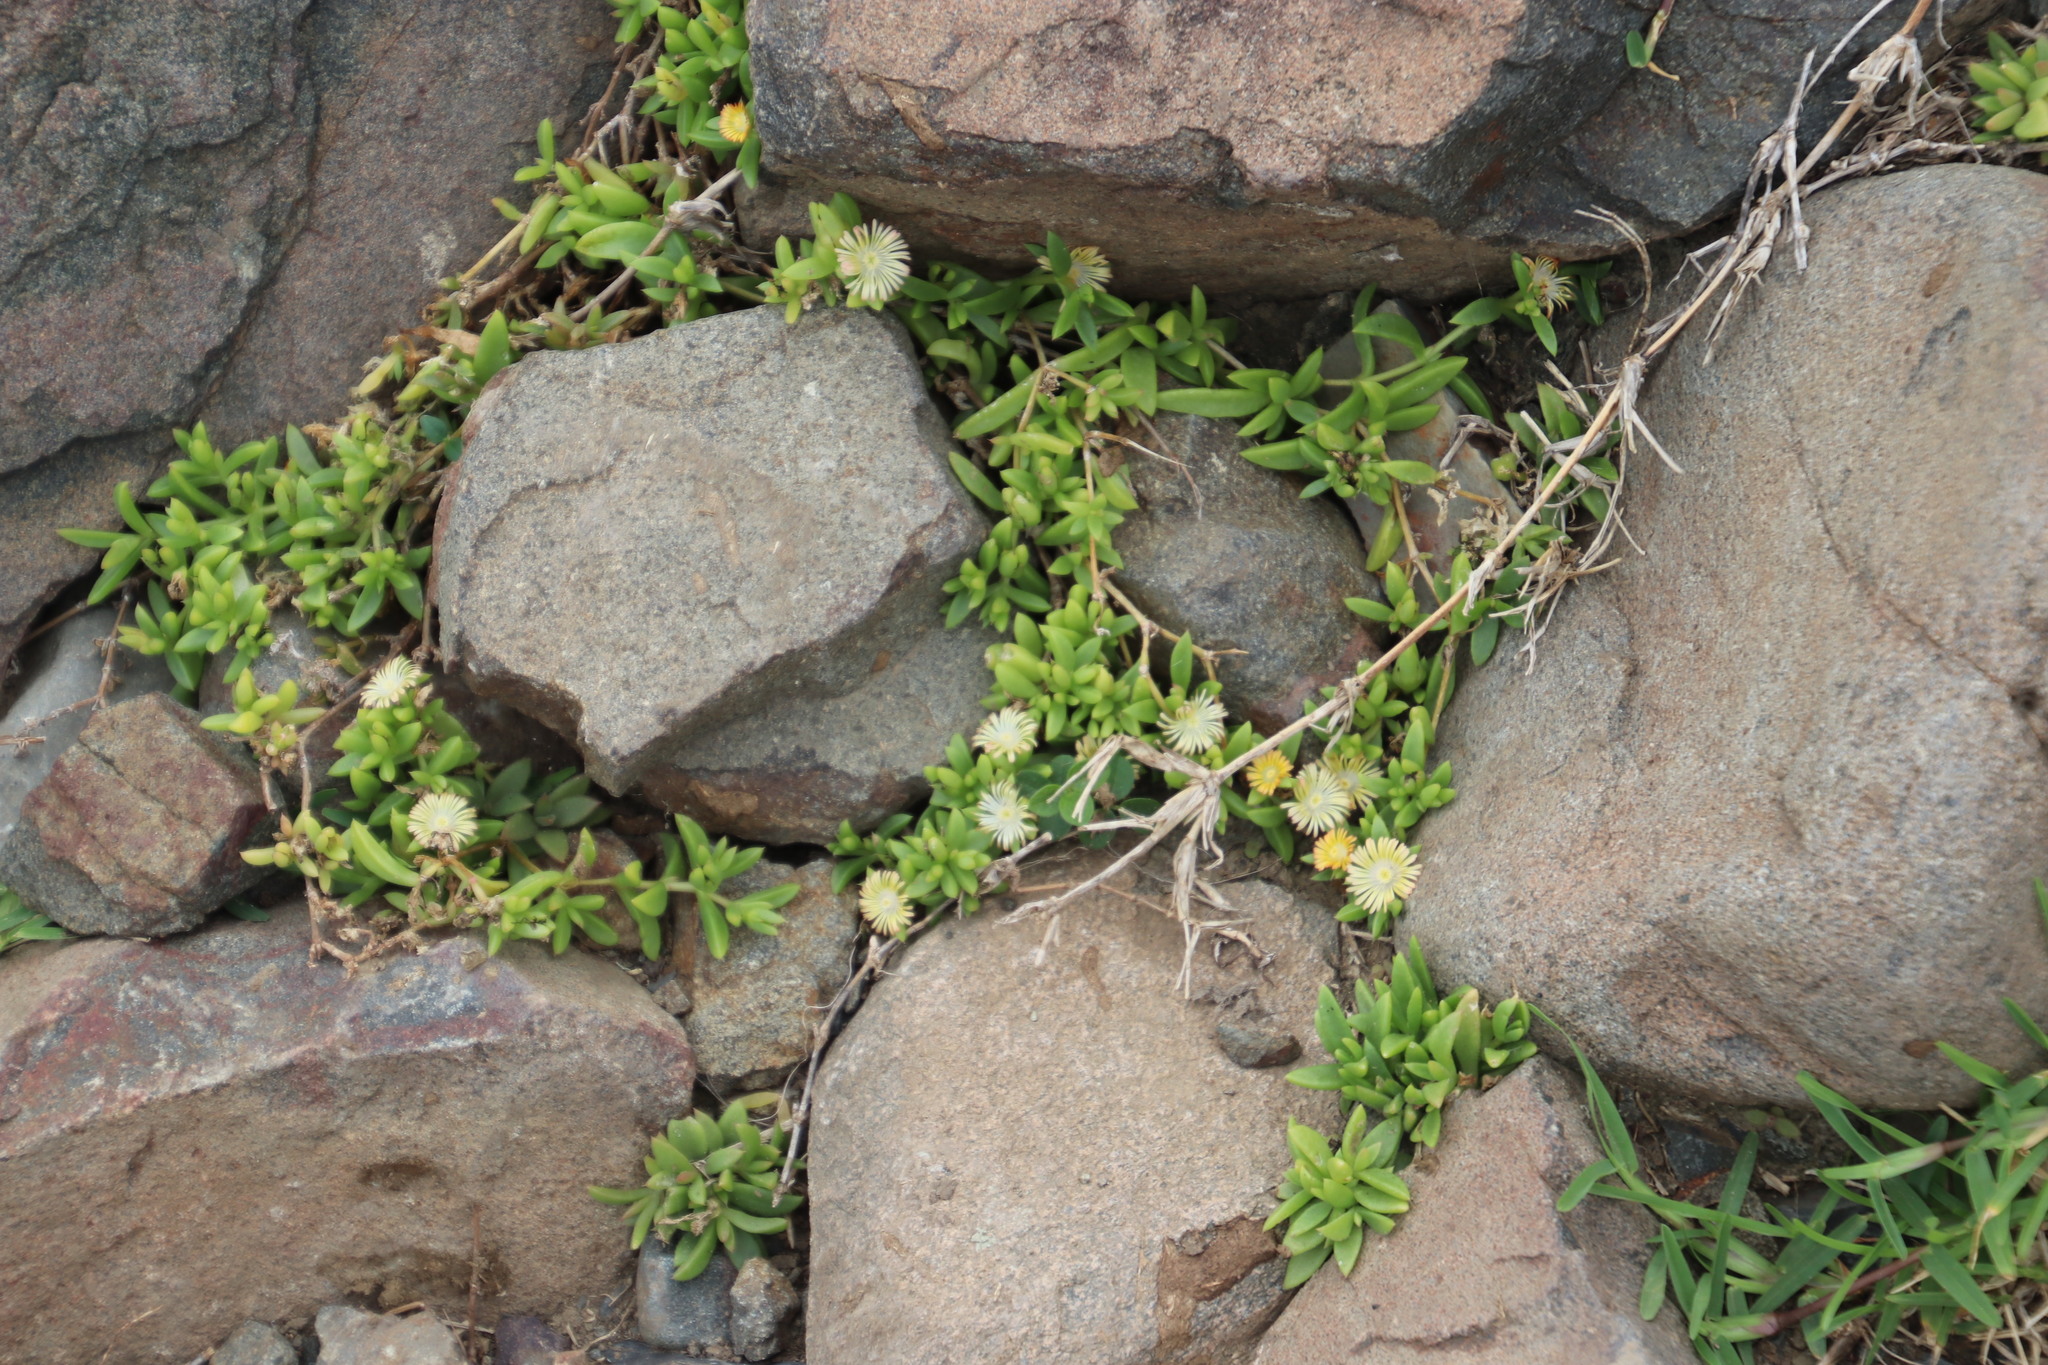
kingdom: Plantae
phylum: Tracheophyta
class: Magnoliopsida
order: Caryophyllales
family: Aizoaceae
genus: Delosperma
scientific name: Delosperma rogersii
